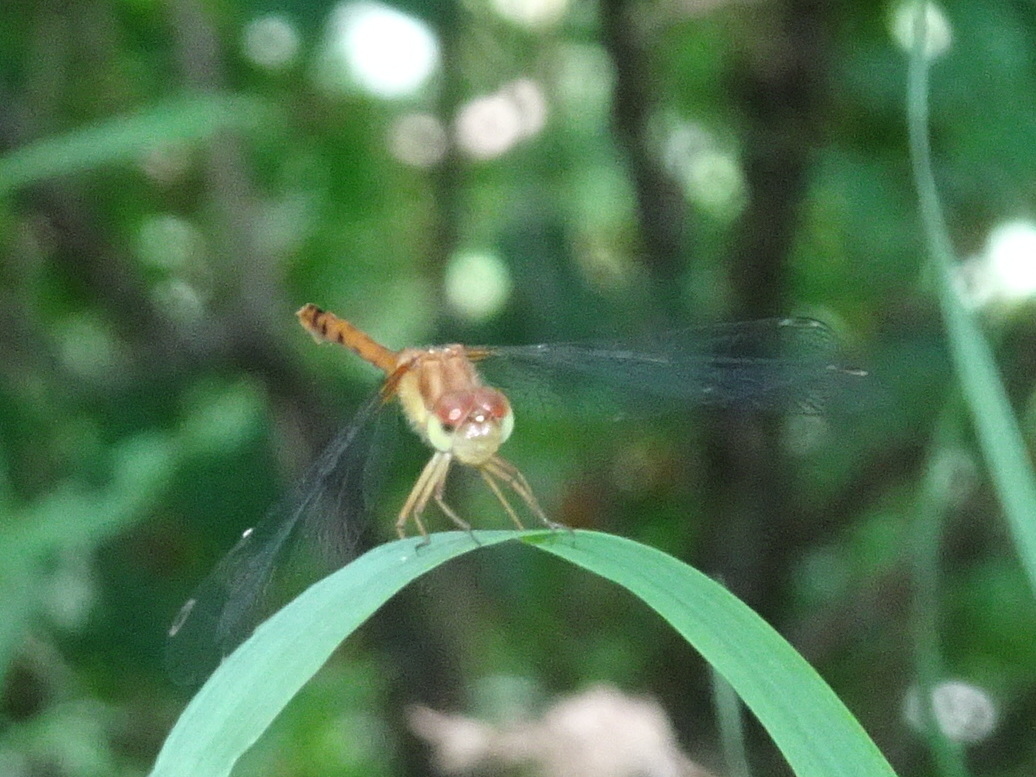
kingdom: Animalia
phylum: Arthropoda
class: Insecta
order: Odonata
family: Libellulidae
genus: Sympetrum
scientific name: Sympetrum vicinum
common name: Autumn meadowhawk
